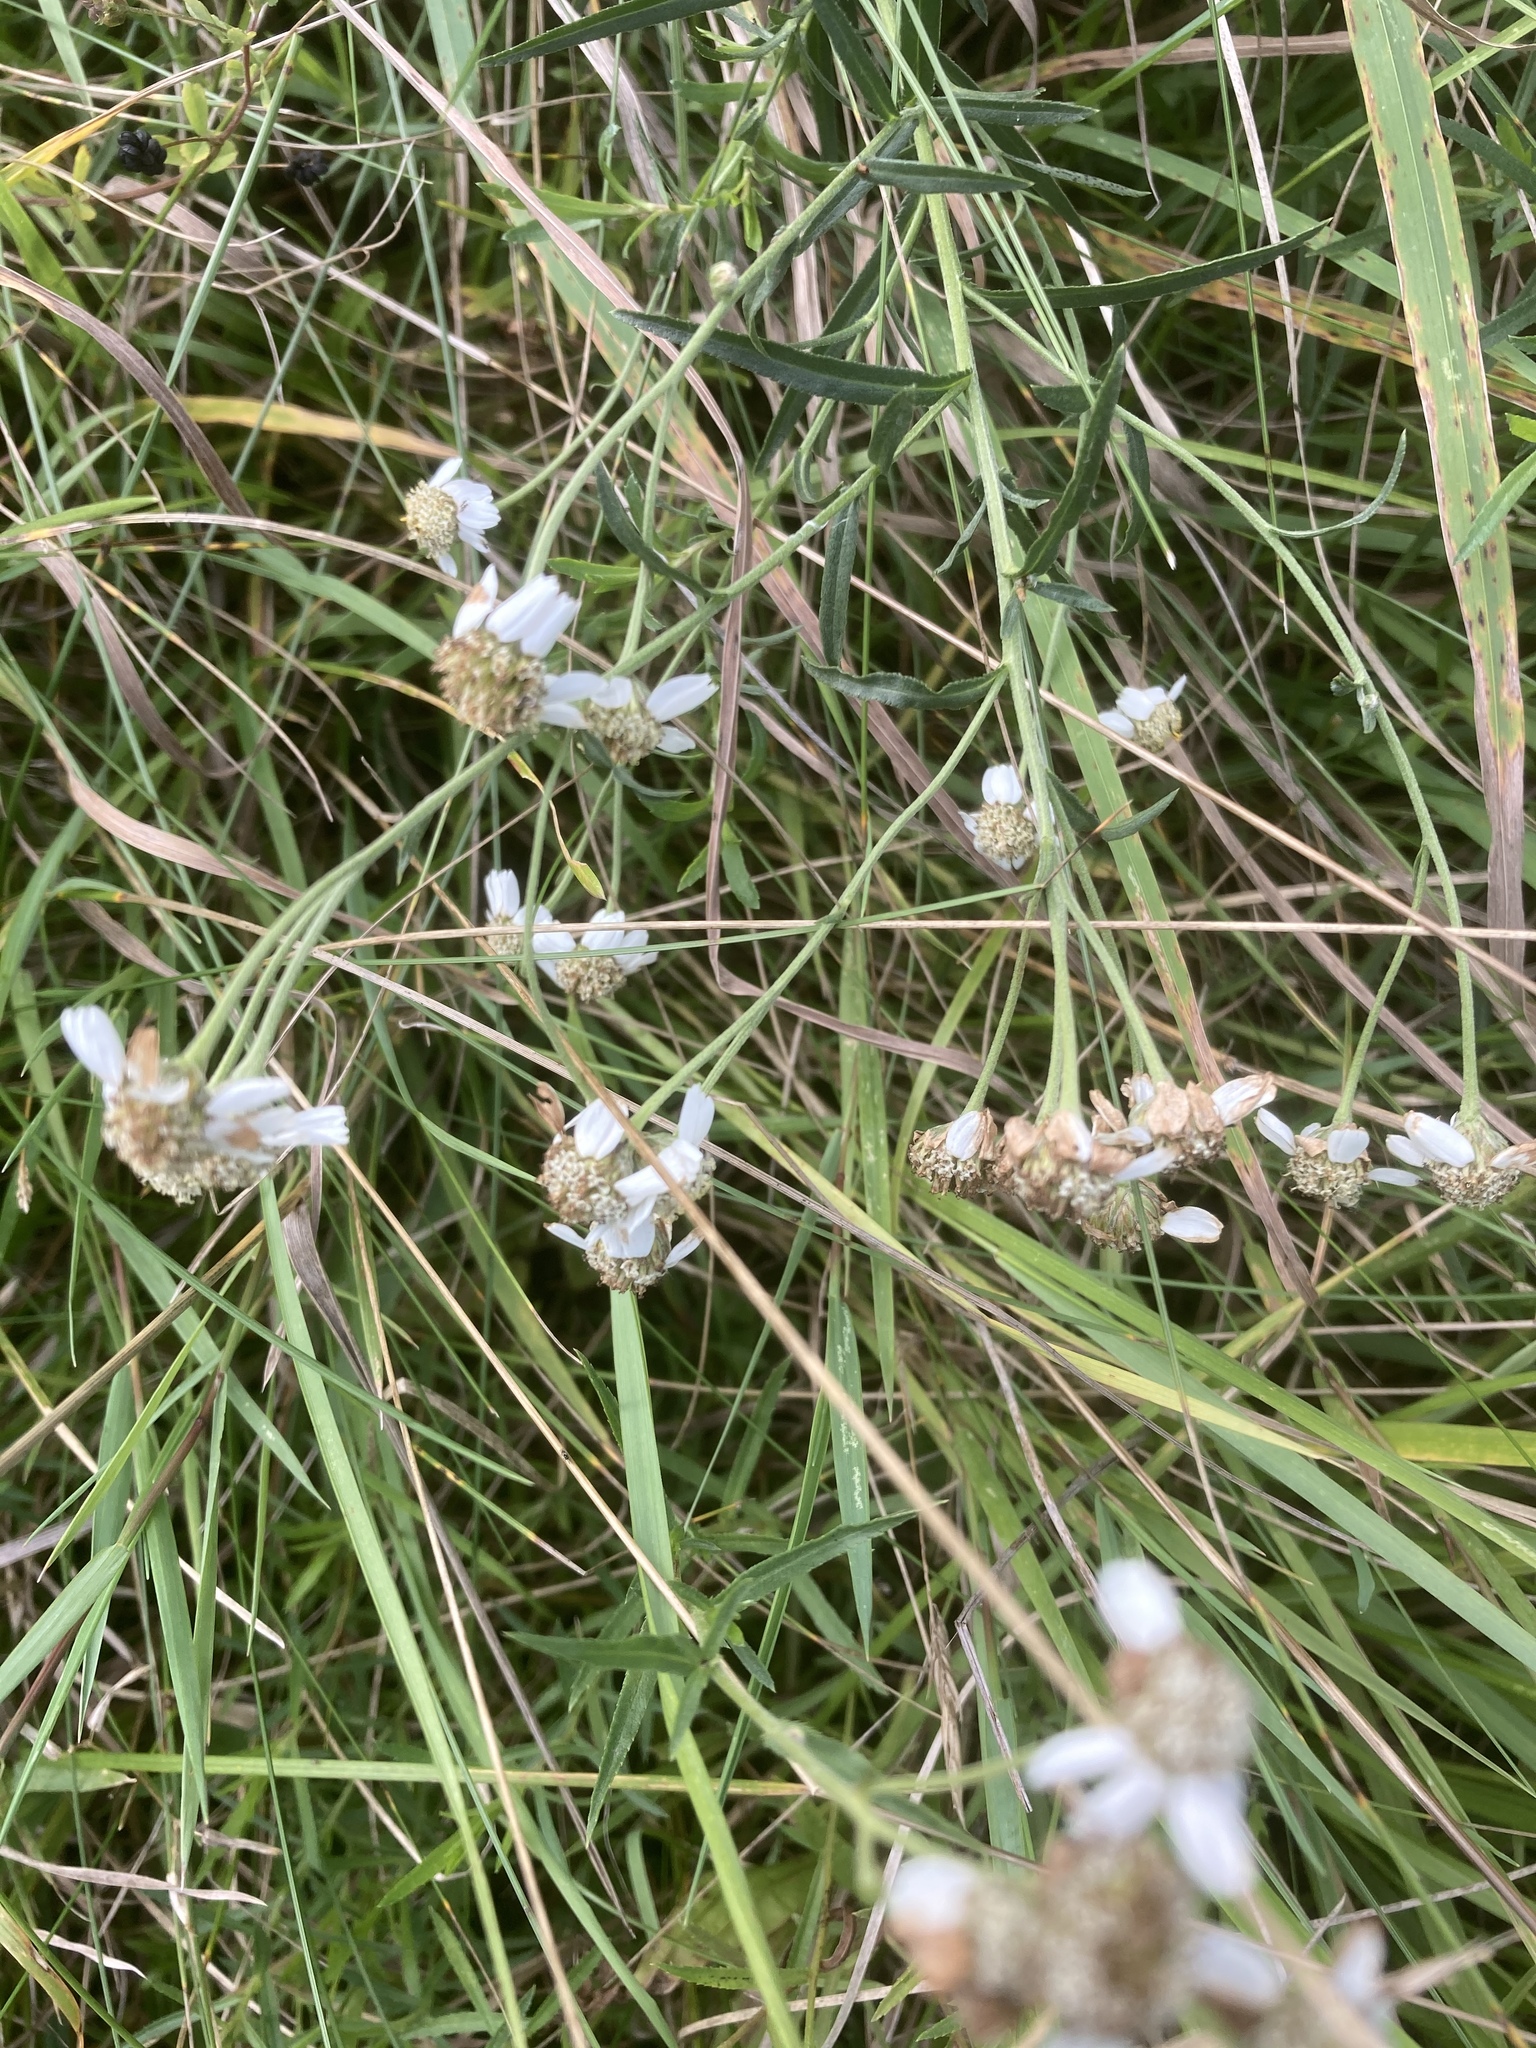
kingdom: Plantae
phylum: Tracheophyta
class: Magnoliopsida
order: Asterales
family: Asteraceae
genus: Achillea
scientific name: Achillea ptarmica
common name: Sneezeweed
